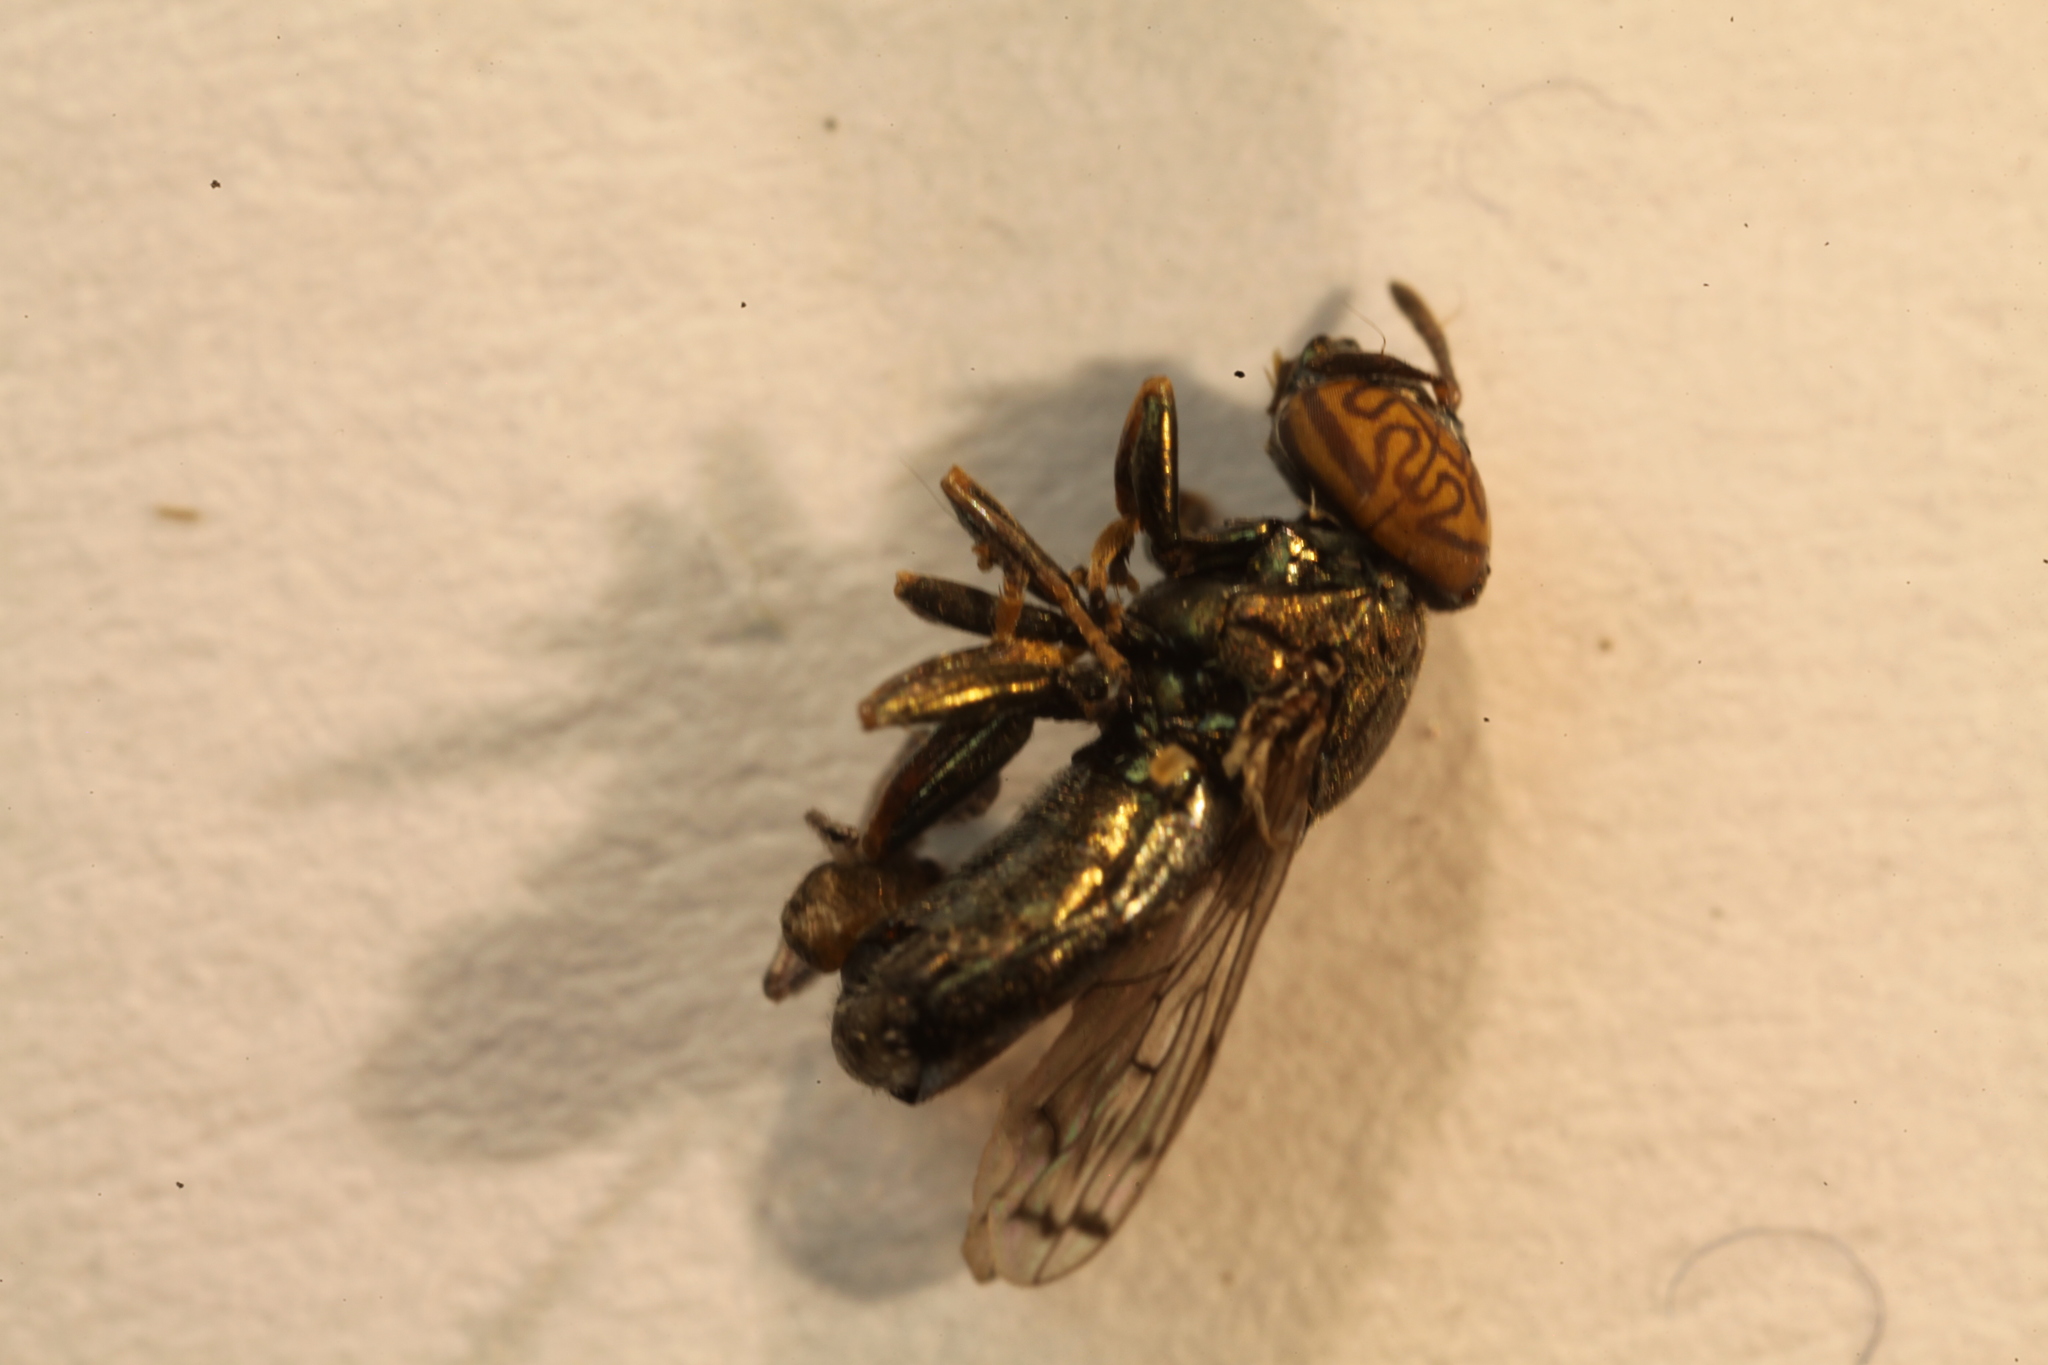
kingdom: Animalia
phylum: Arthropoda
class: Insecta
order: Diptera
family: Syrphidae
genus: Orthonevra
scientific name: Orthonevra nitida
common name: Wavy mucksucker
